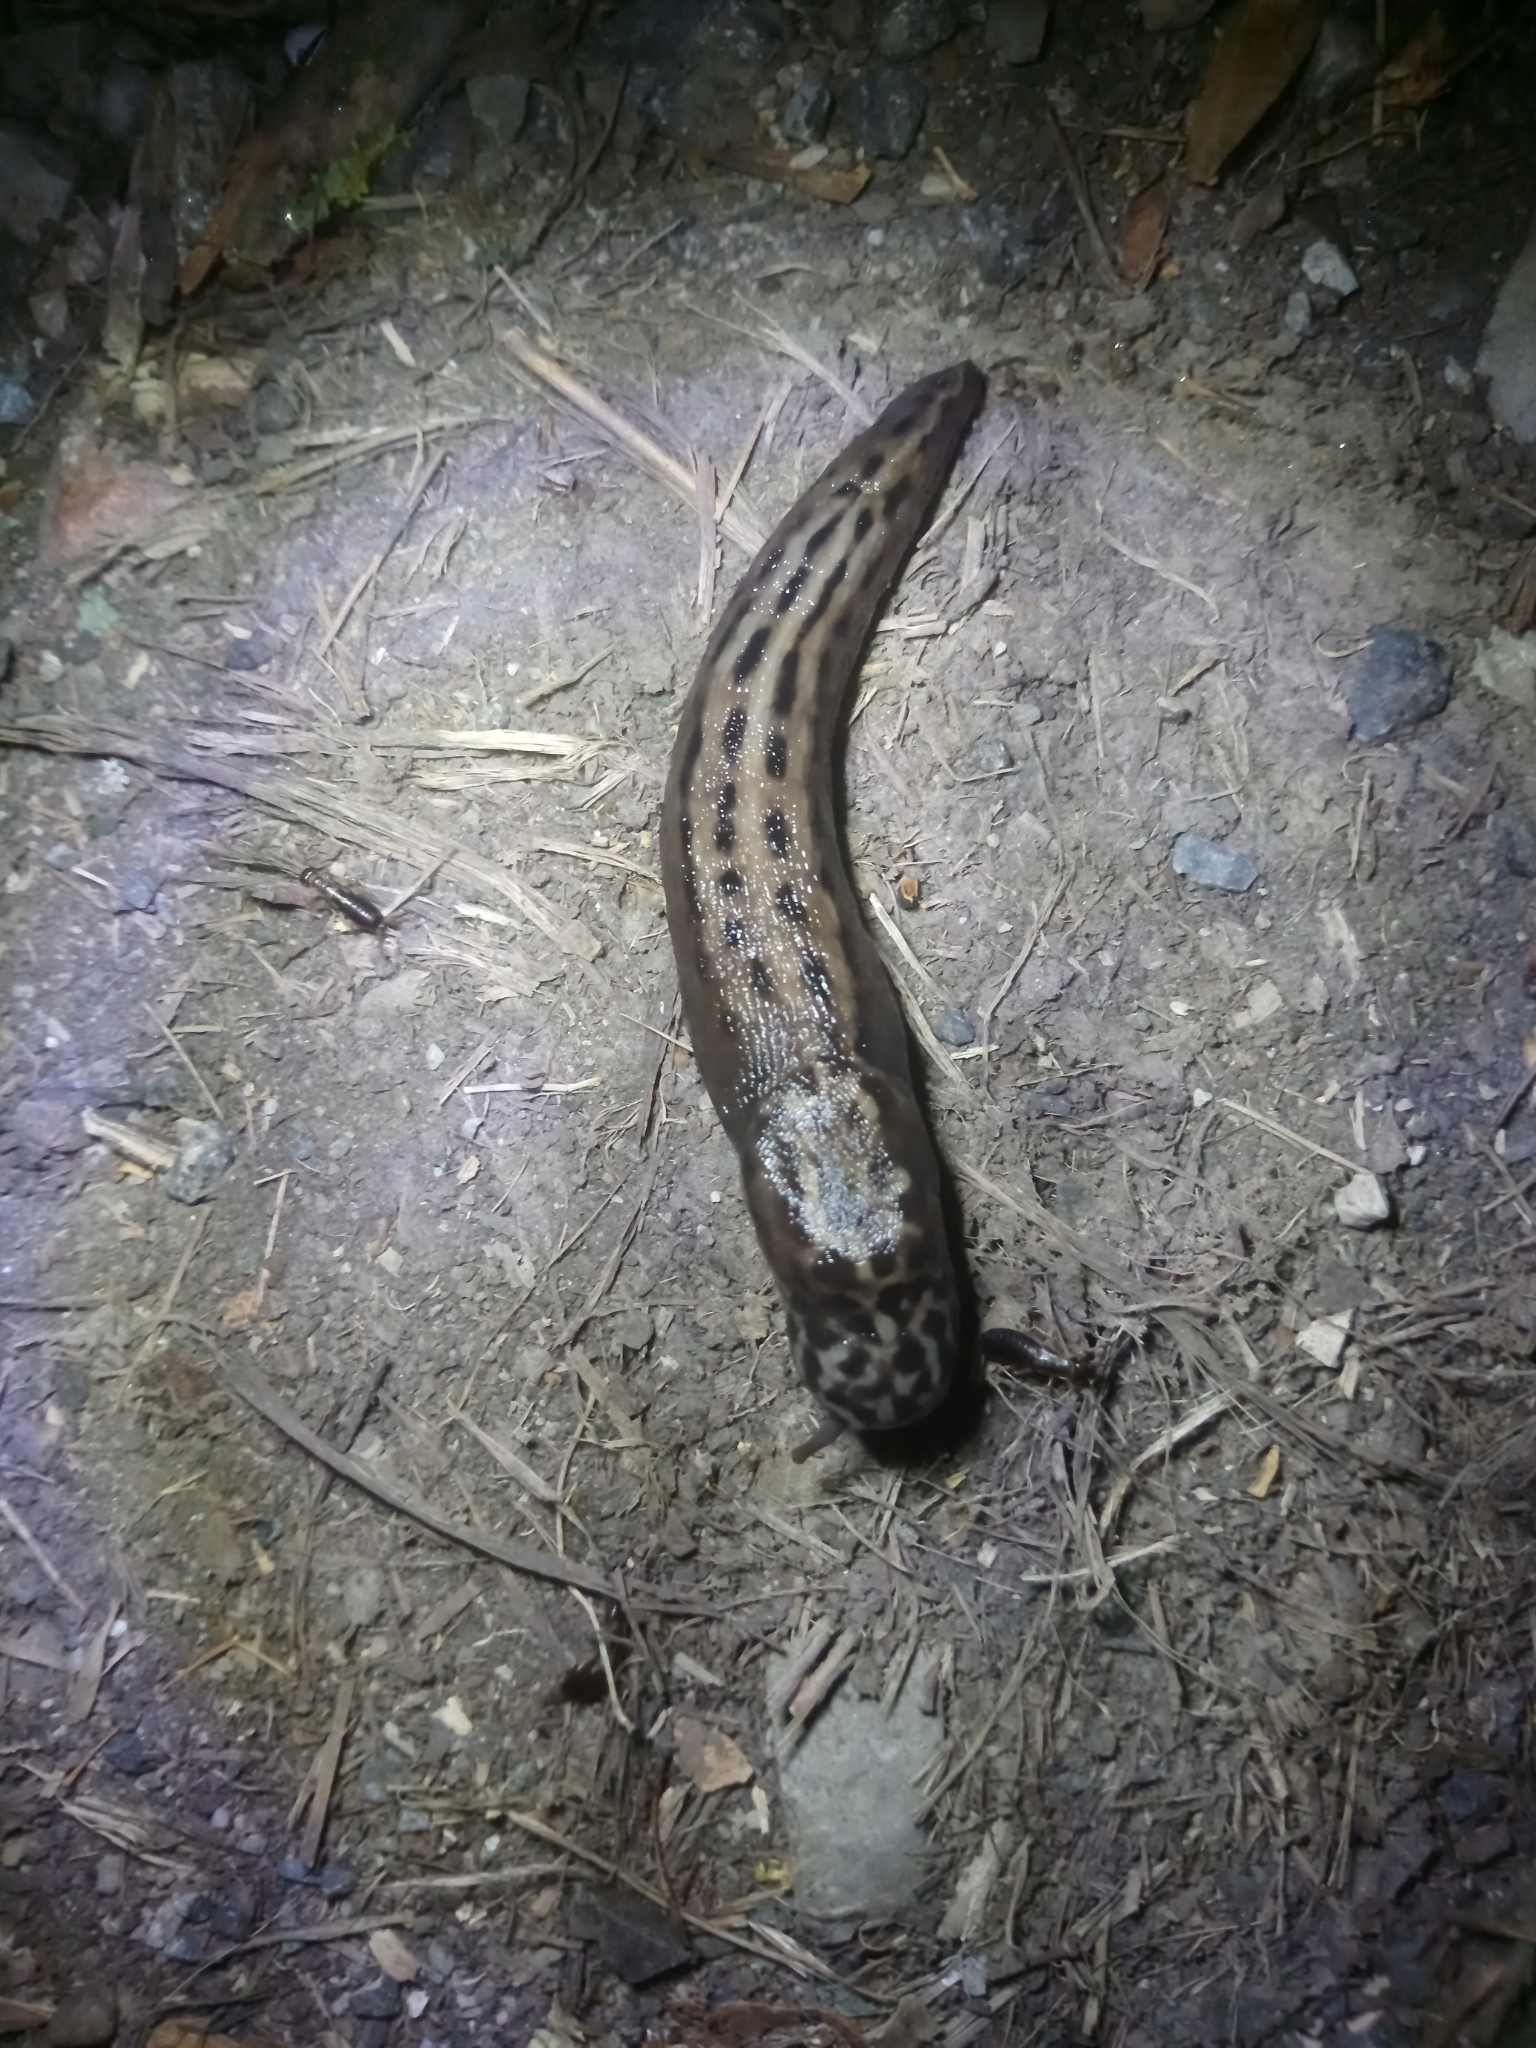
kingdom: Animalia
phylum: Mollusca
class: Gastropoda
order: Stylommatophora
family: Limacidae
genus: Limax
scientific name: Limax maximus
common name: Great grey slug
